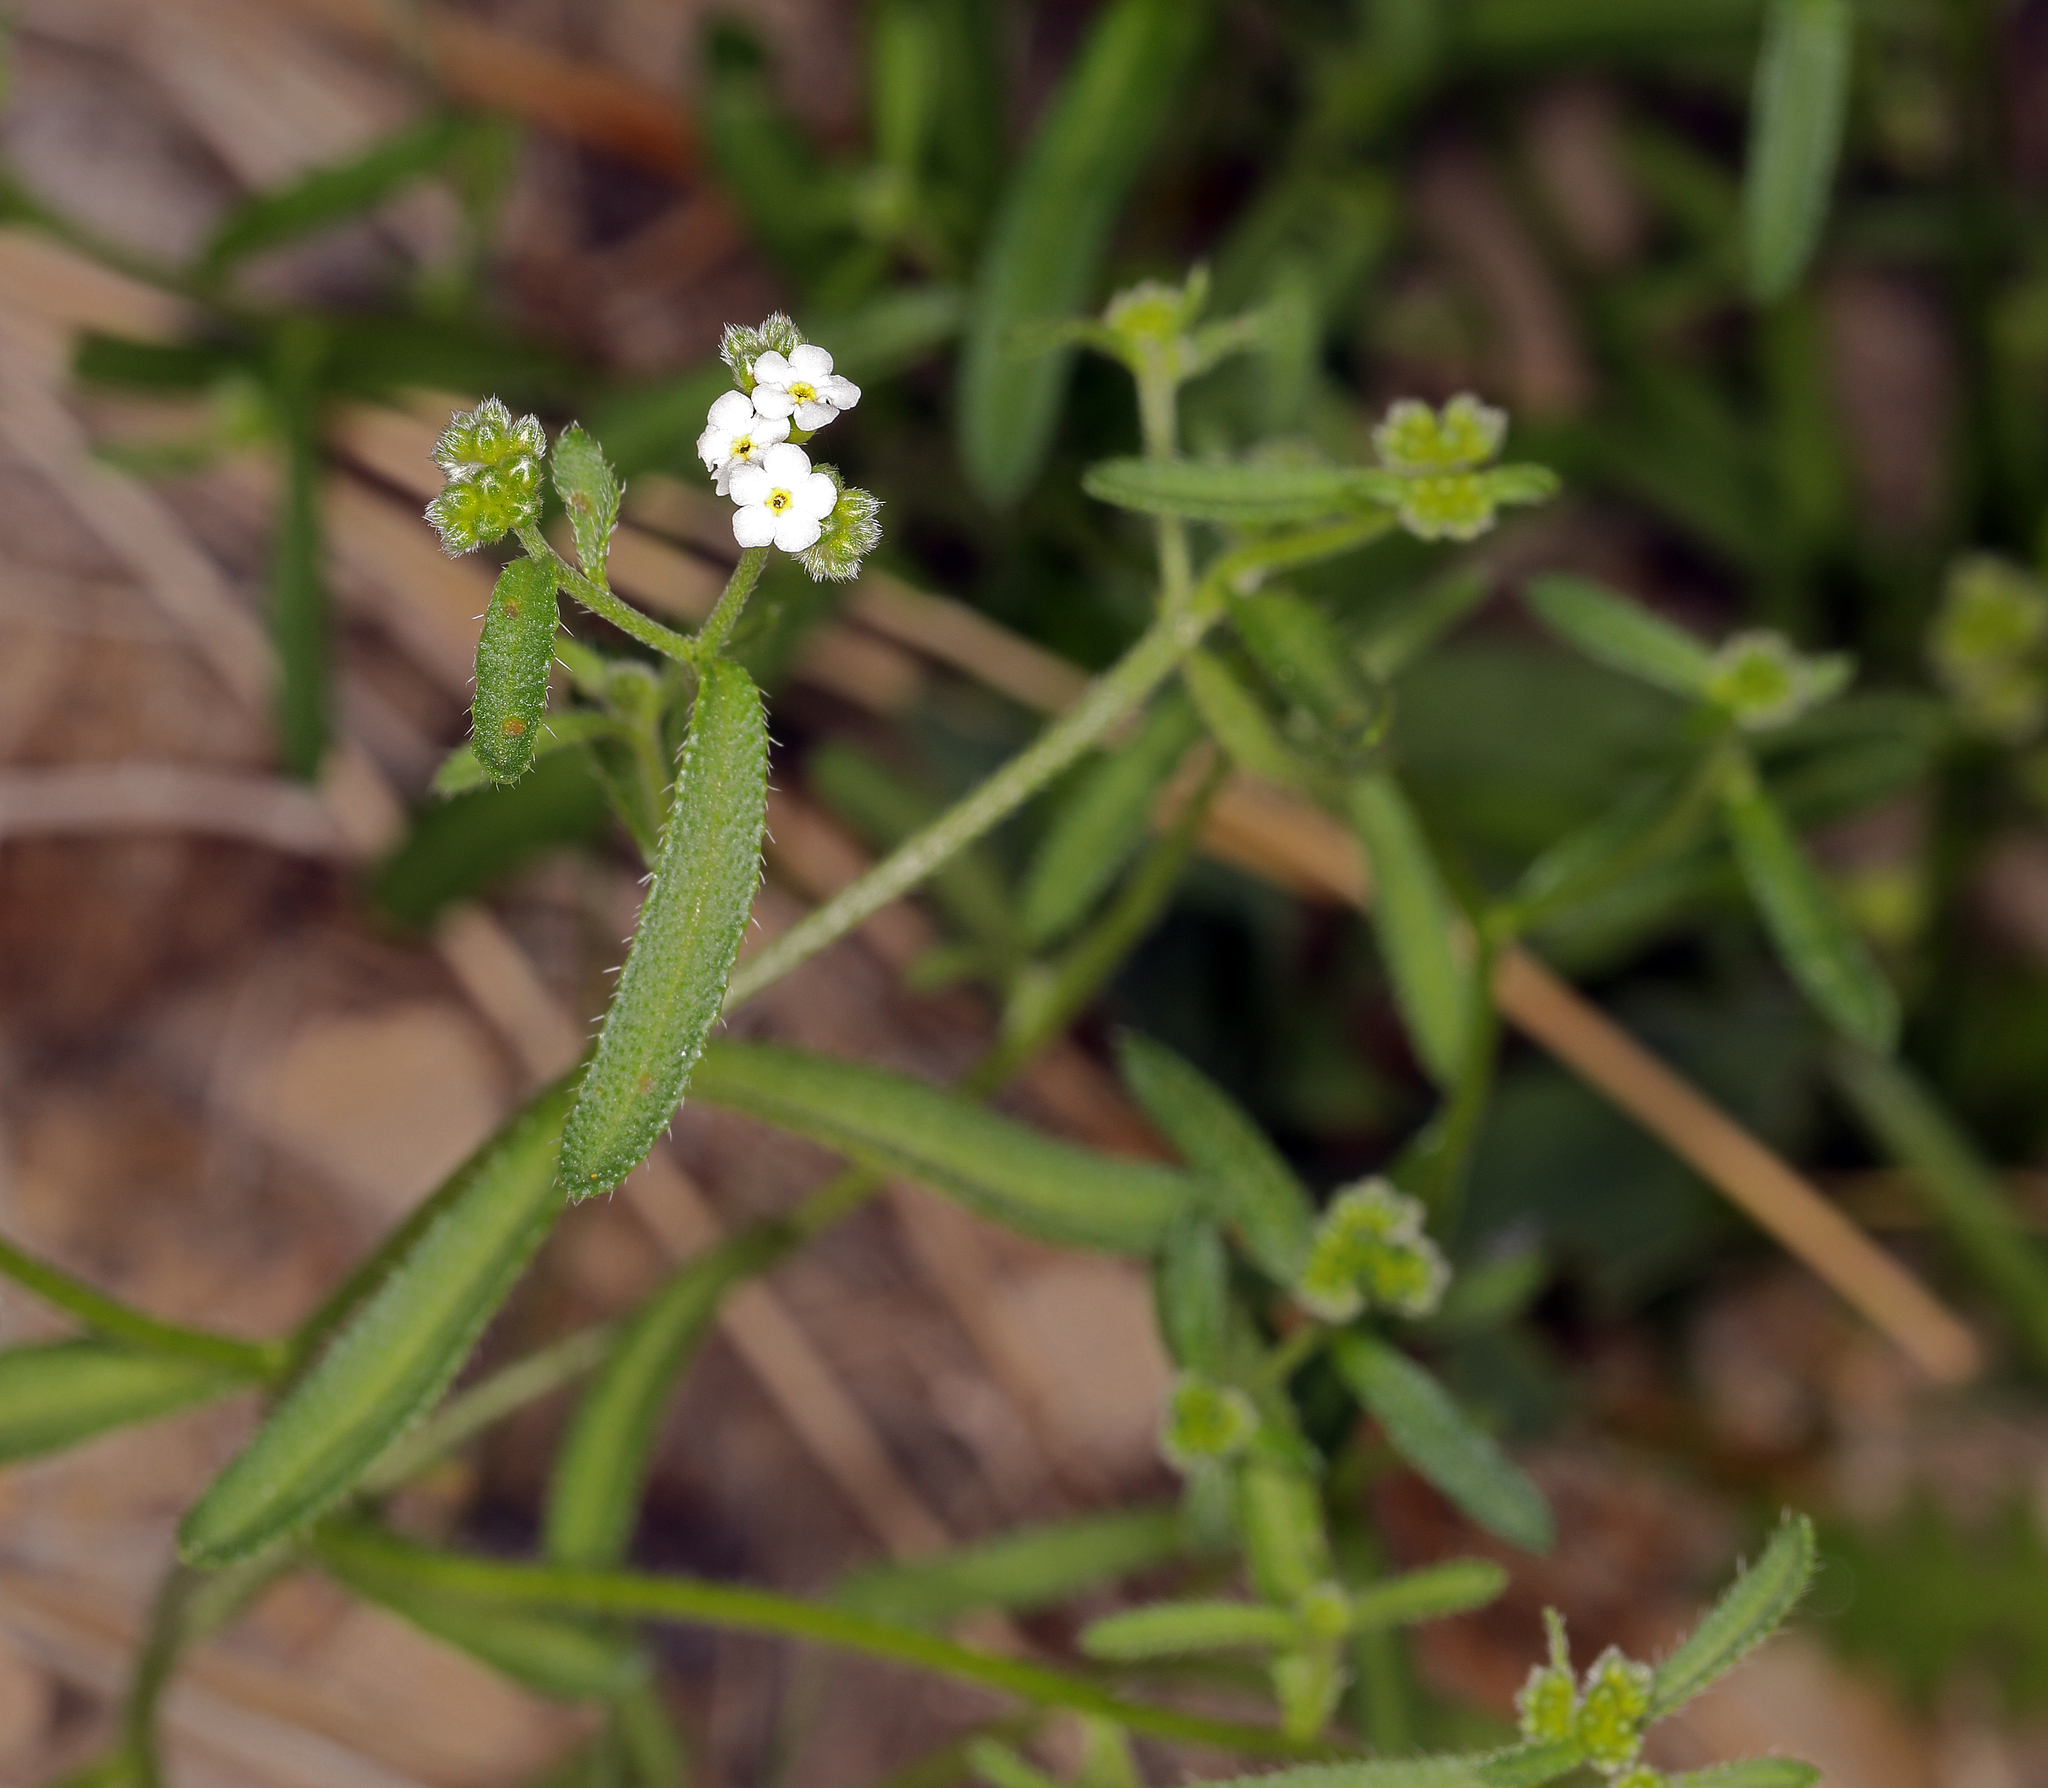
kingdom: Plantae
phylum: Tracheophyta
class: Magnoliopsida
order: Boraginales
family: Boraginaceae
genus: Cryptantha
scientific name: Cryptantha utahensis
